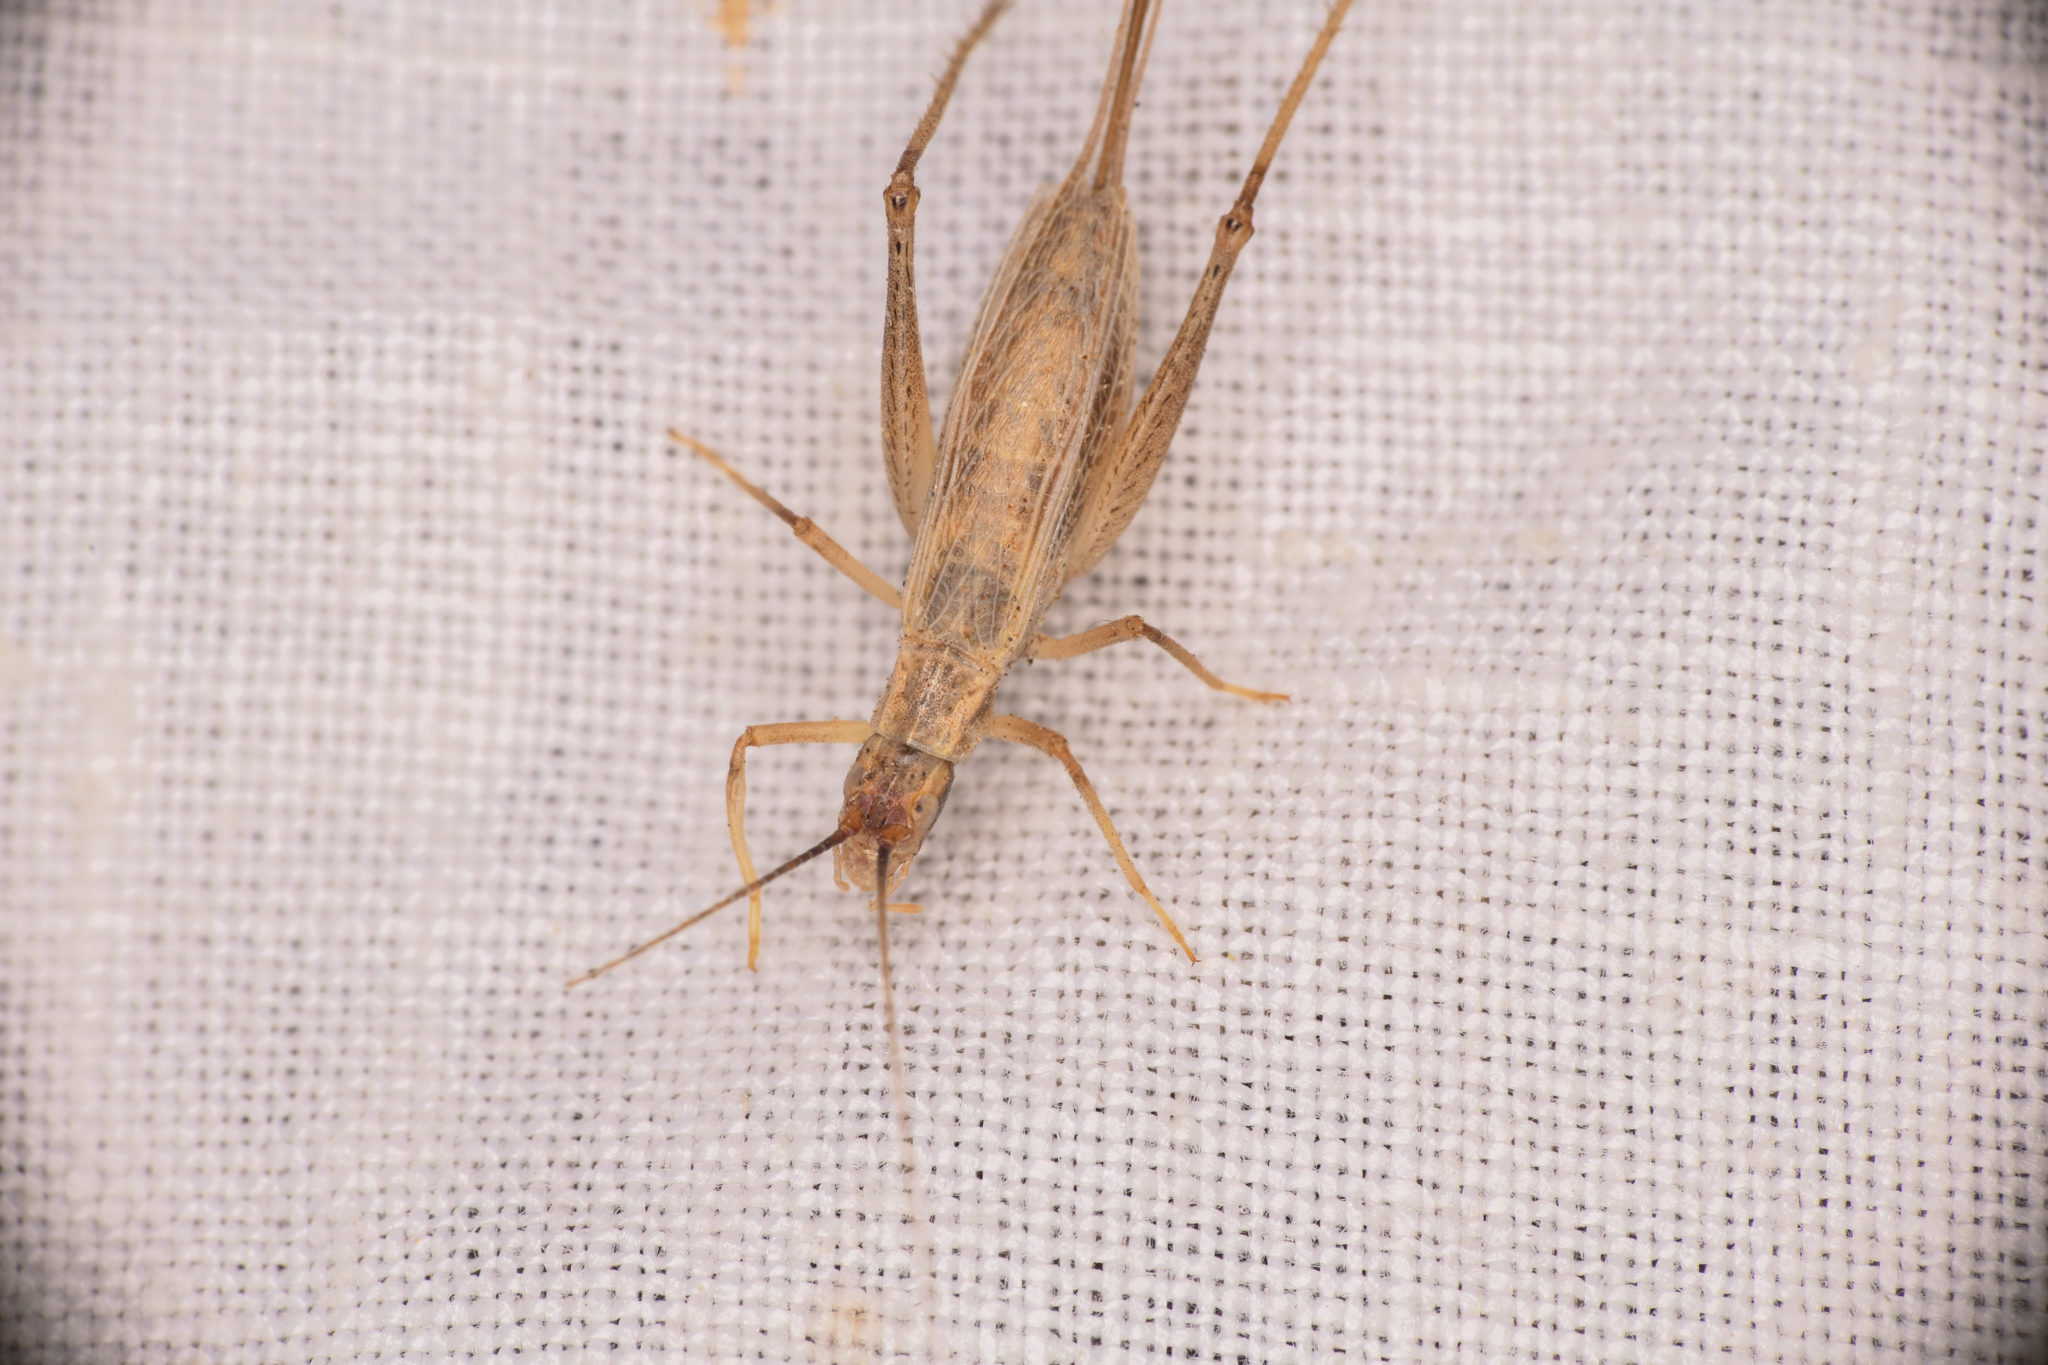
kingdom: Animalia
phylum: Arthropoda
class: Insecta
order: Orthoptera
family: Gryllidae
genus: Oecanthus
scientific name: Oecanthus californicus
